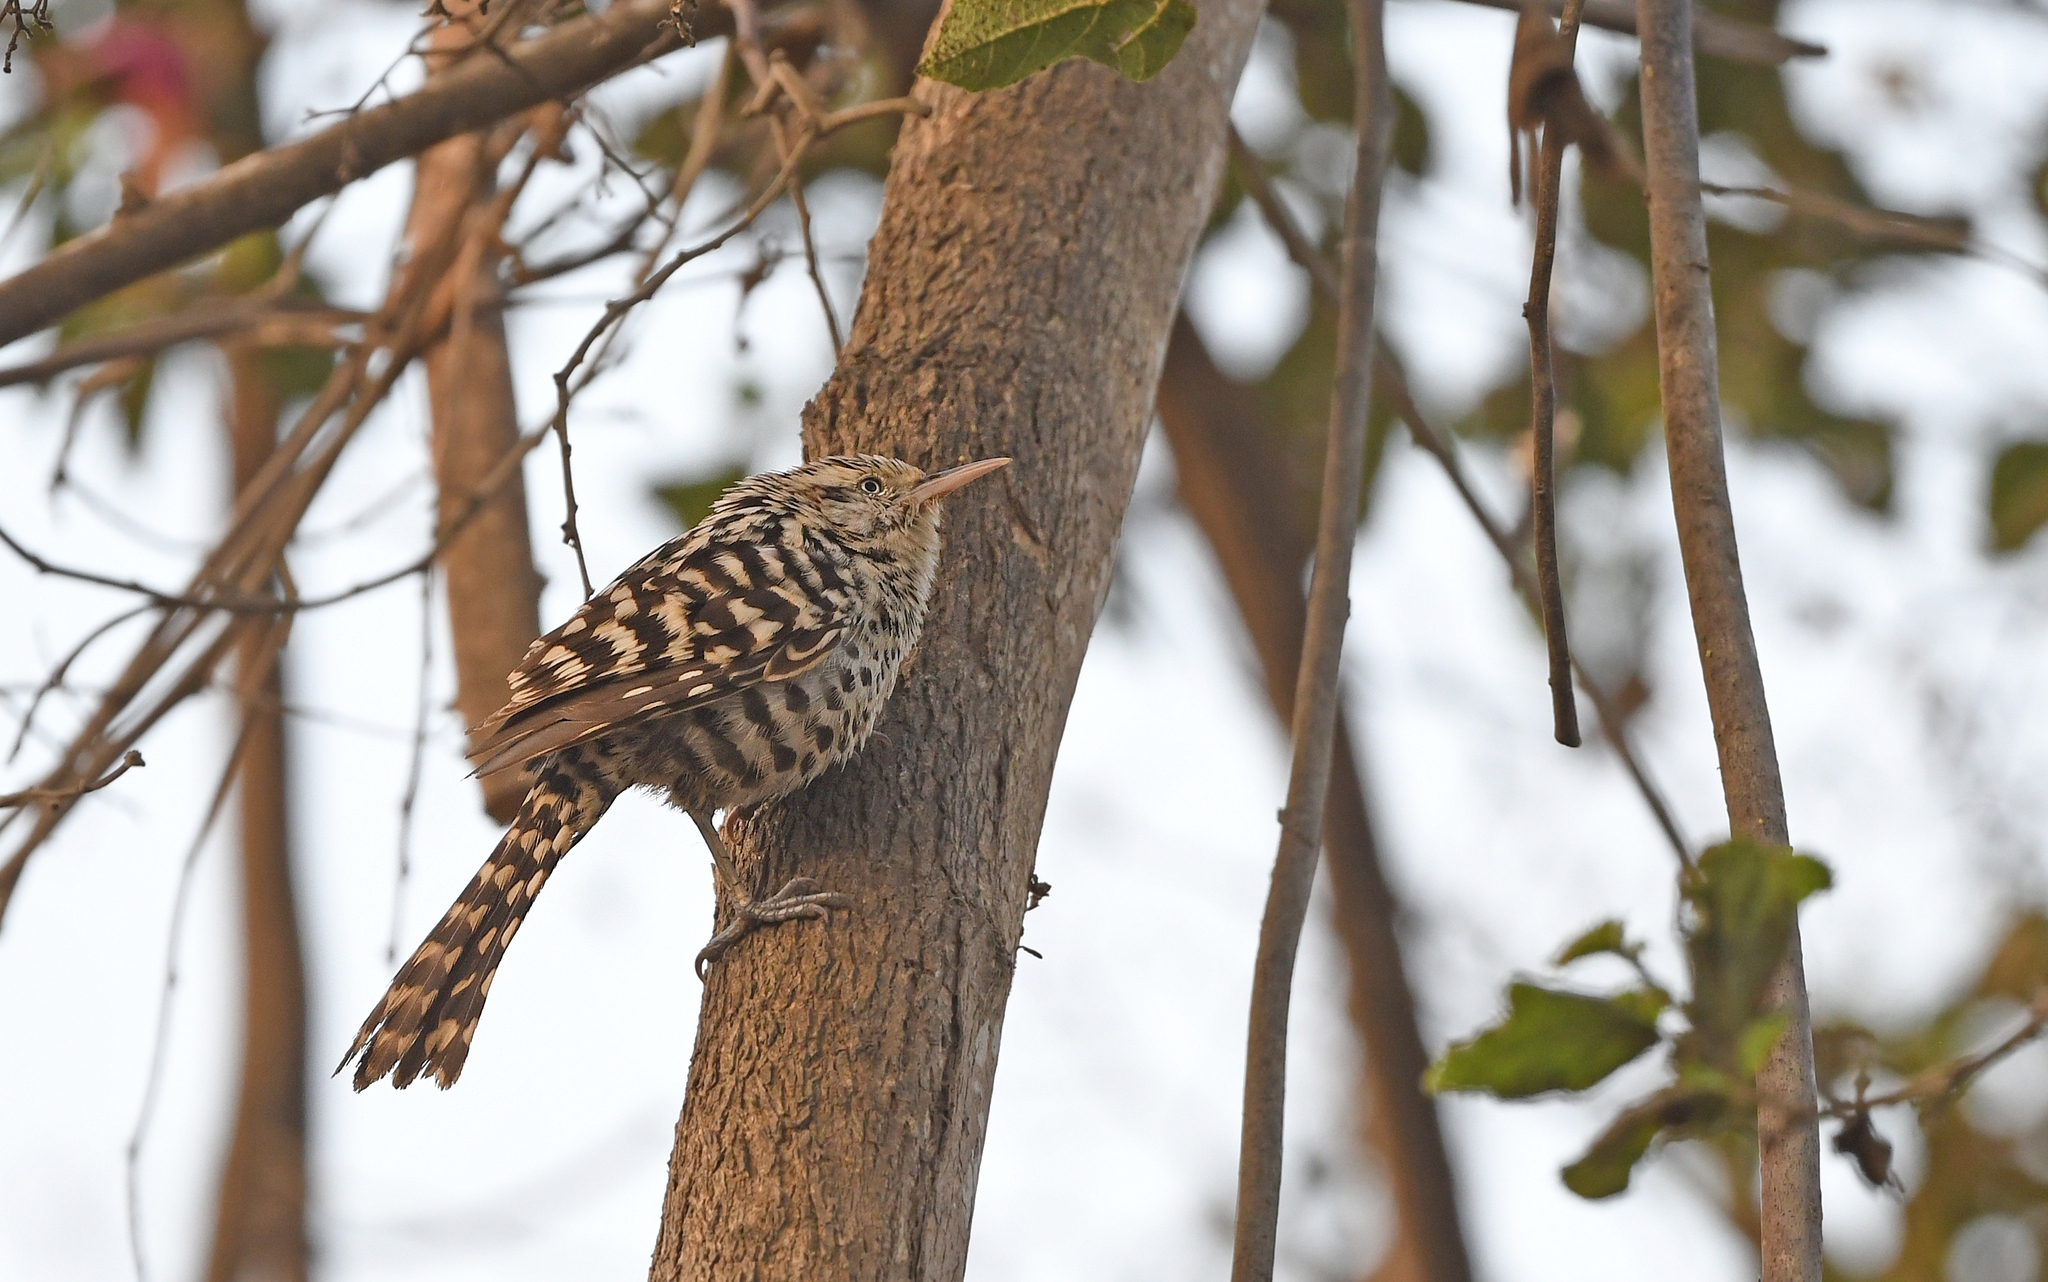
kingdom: Animalia
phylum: Chordata
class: Aves
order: Passeriformes
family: Troglodytidae
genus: Campylorhynchus
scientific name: Campylorhynchus nuchalis
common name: Stripe-backed wren
